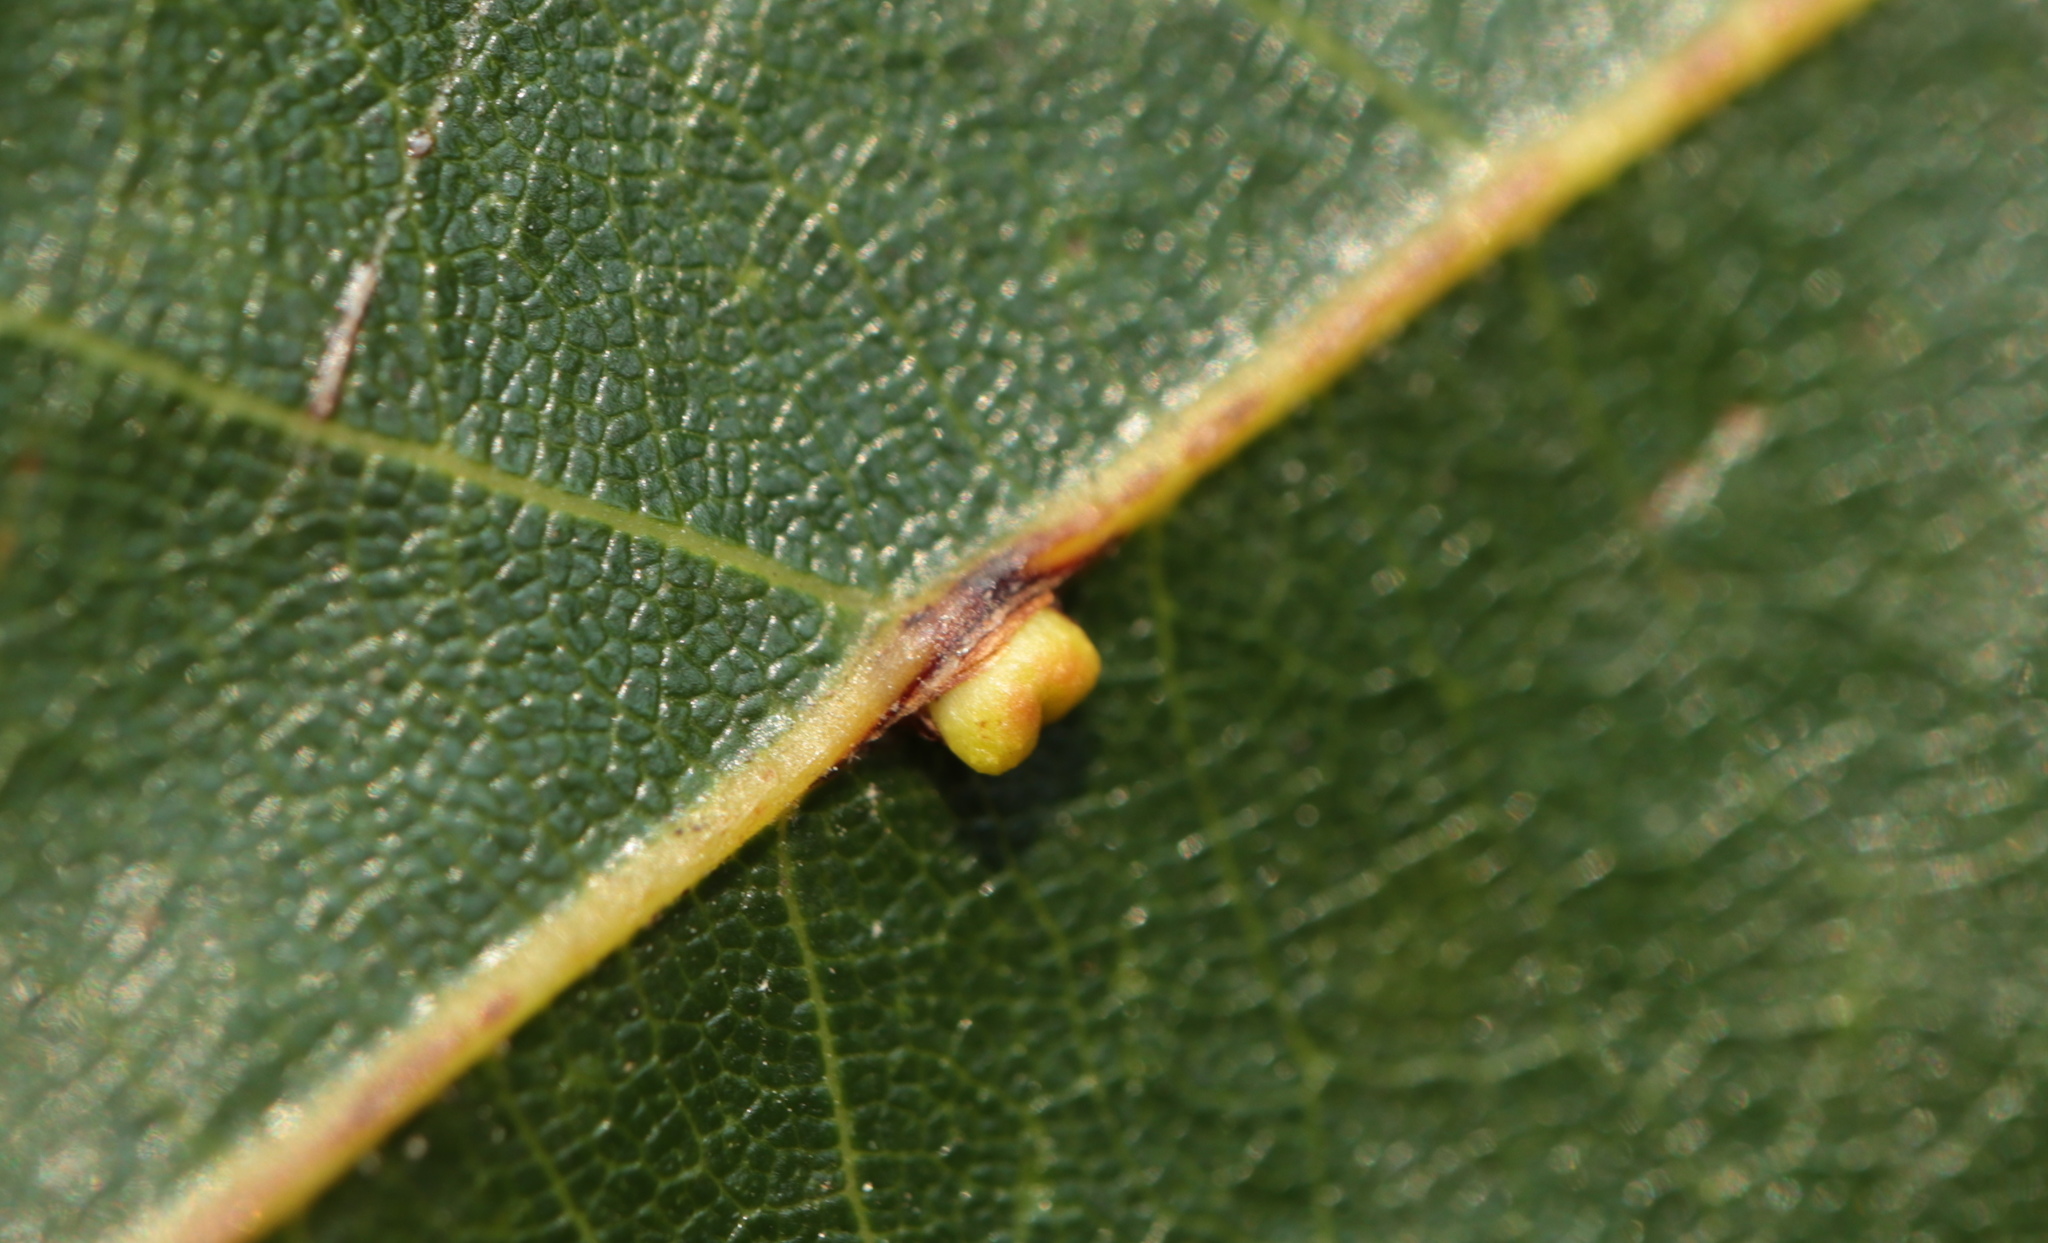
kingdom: Animalia
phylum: Arthropoda
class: Insecta
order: Hymenoptera
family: Cynipidae
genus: Kokkocynips
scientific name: Kokkocynips rileyi
